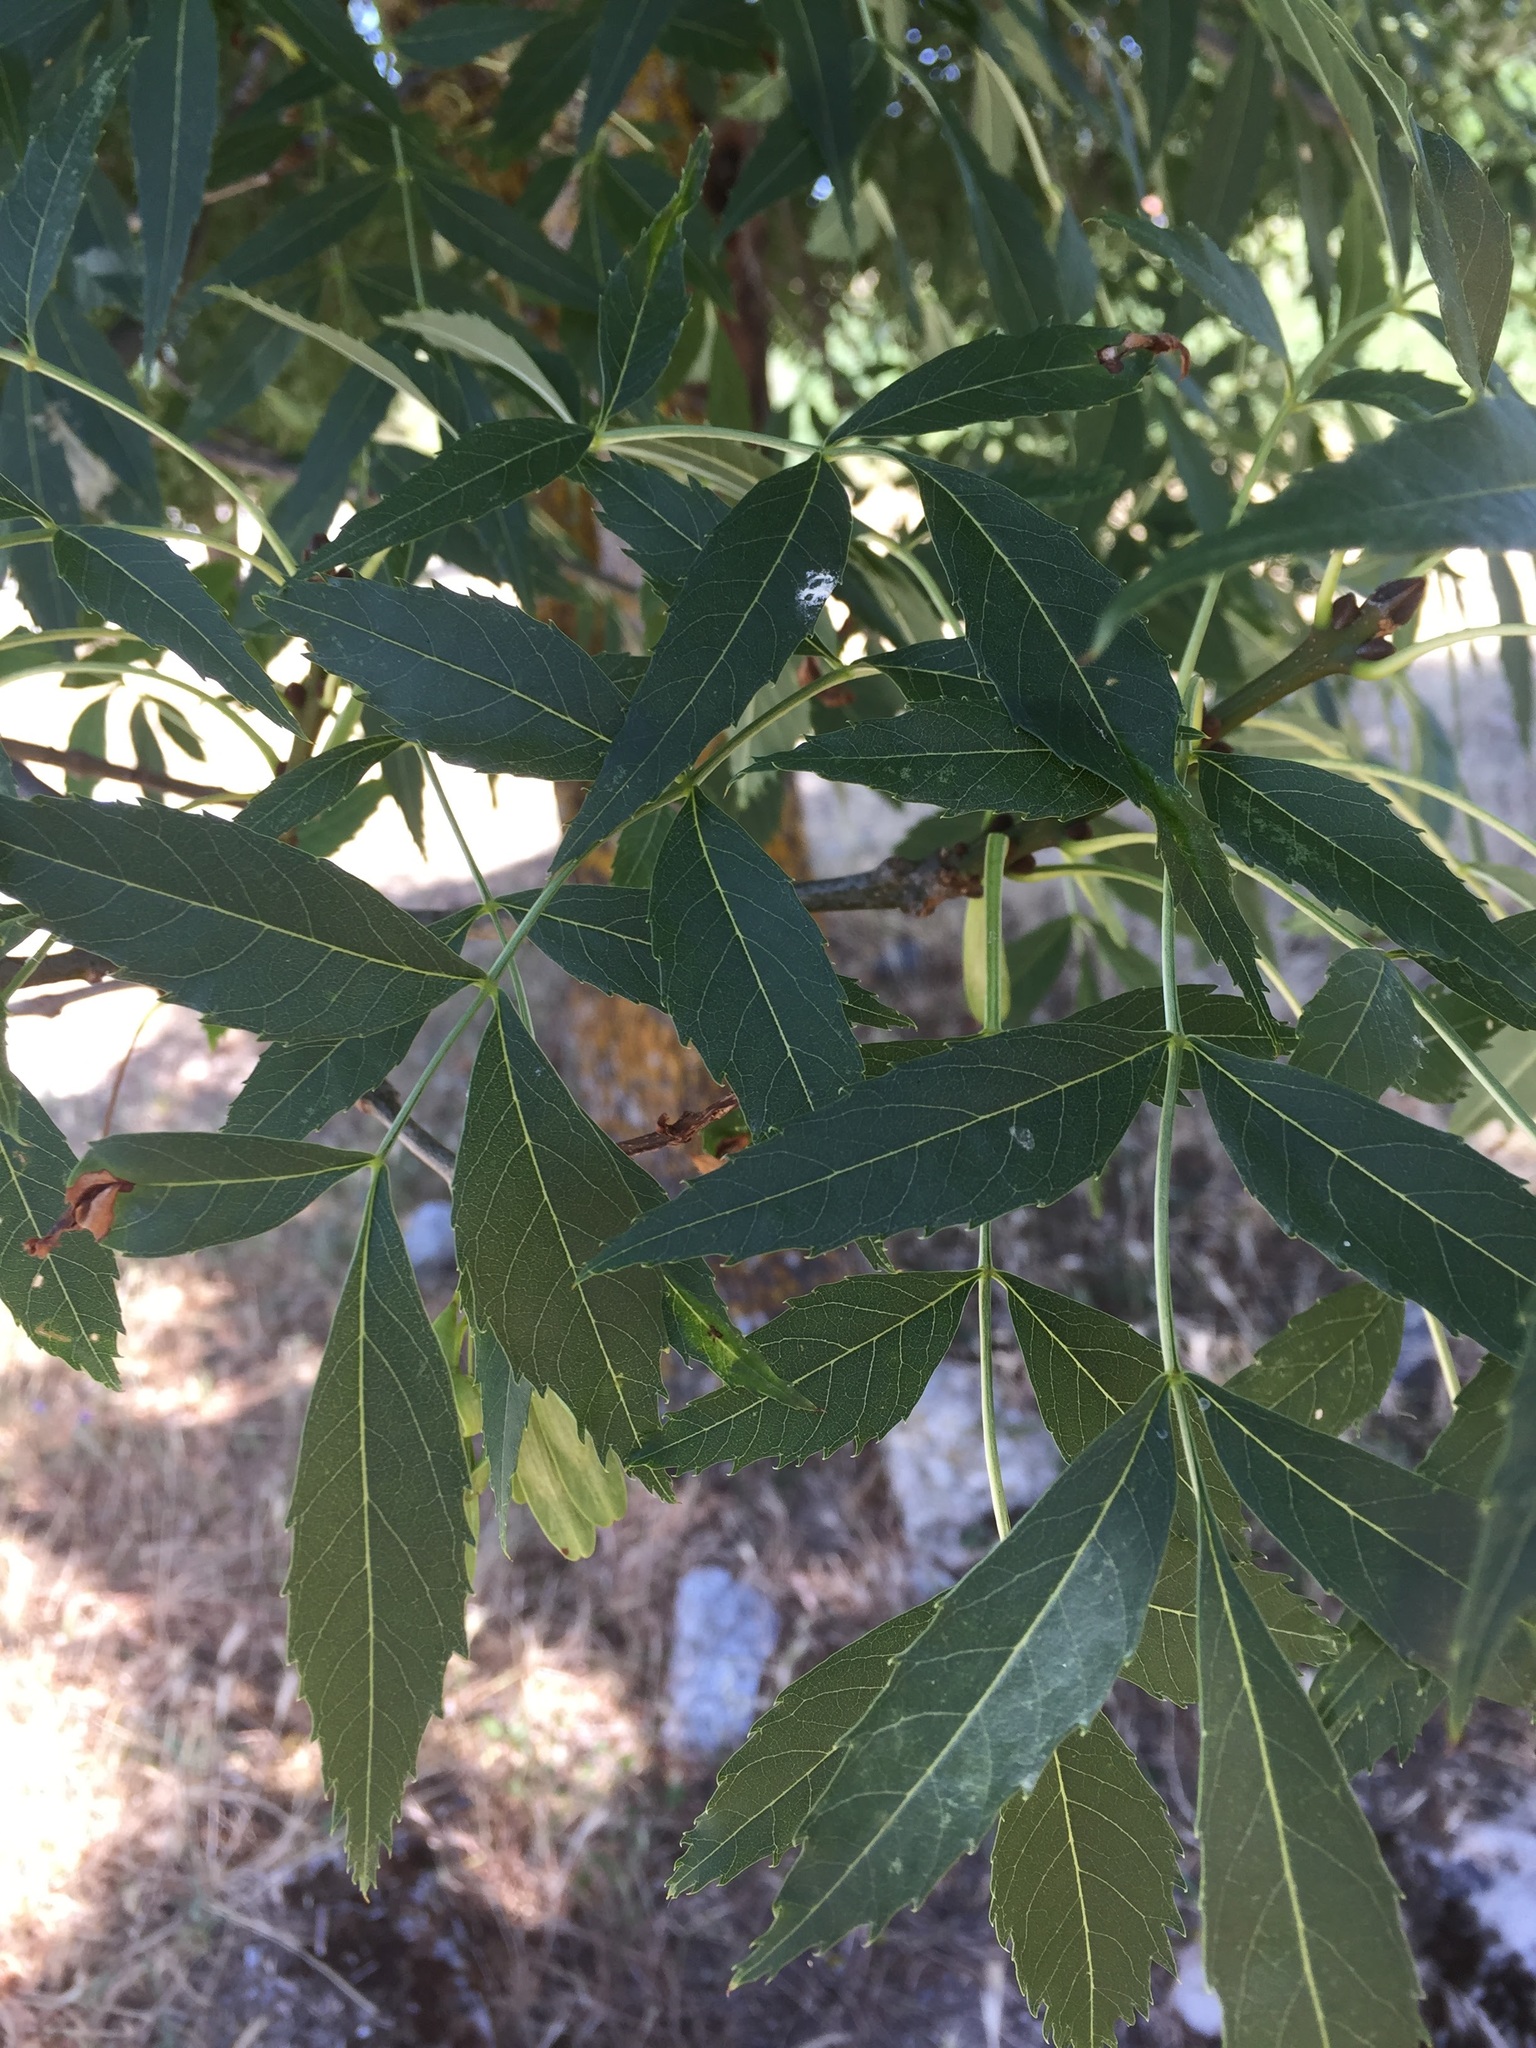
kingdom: Plantae
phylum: Tracheophyta
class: Magnoliopsida
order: Lamiales
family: Oleaceae
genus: Fraxinus
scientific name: Fraxinus angustifolia
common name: Narrow-leafed ash
